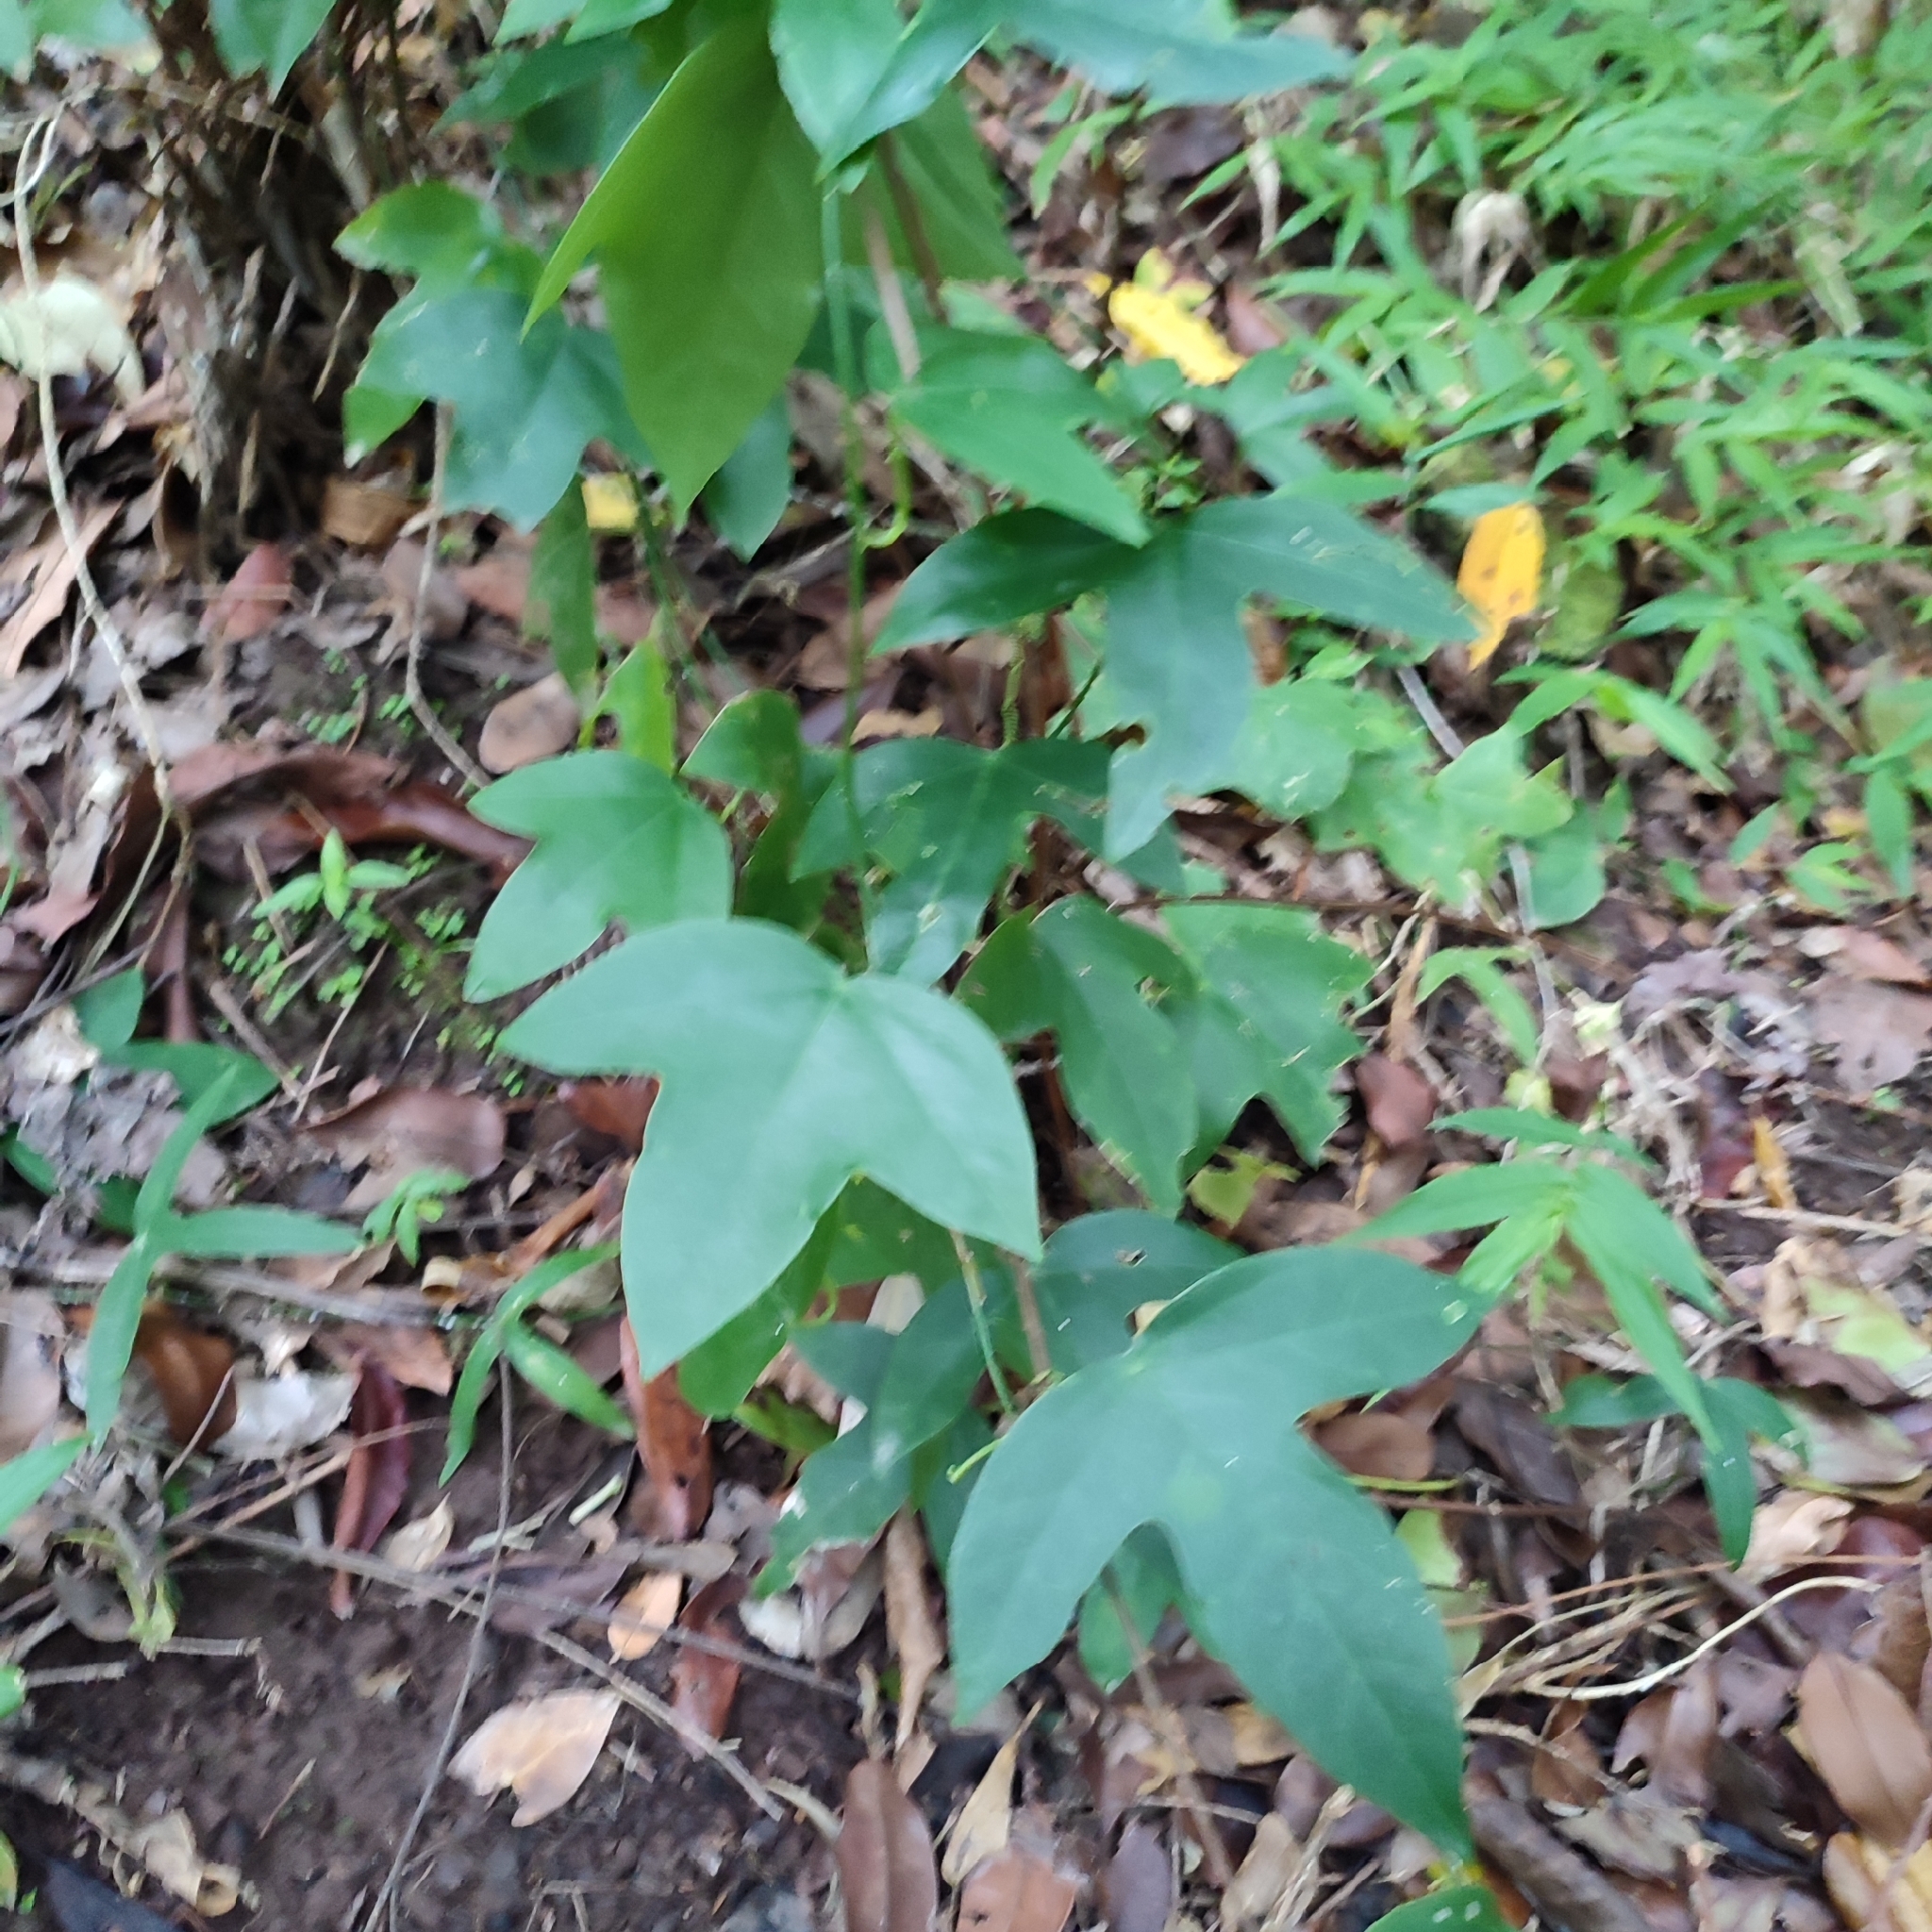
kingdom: Plantae
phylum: Tracheophyta
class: Magnoliopsida
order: Malpighiales
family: Passifloraceae
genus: Passiflora
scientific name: Passiflora suberosa
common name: Wild passionfruit
